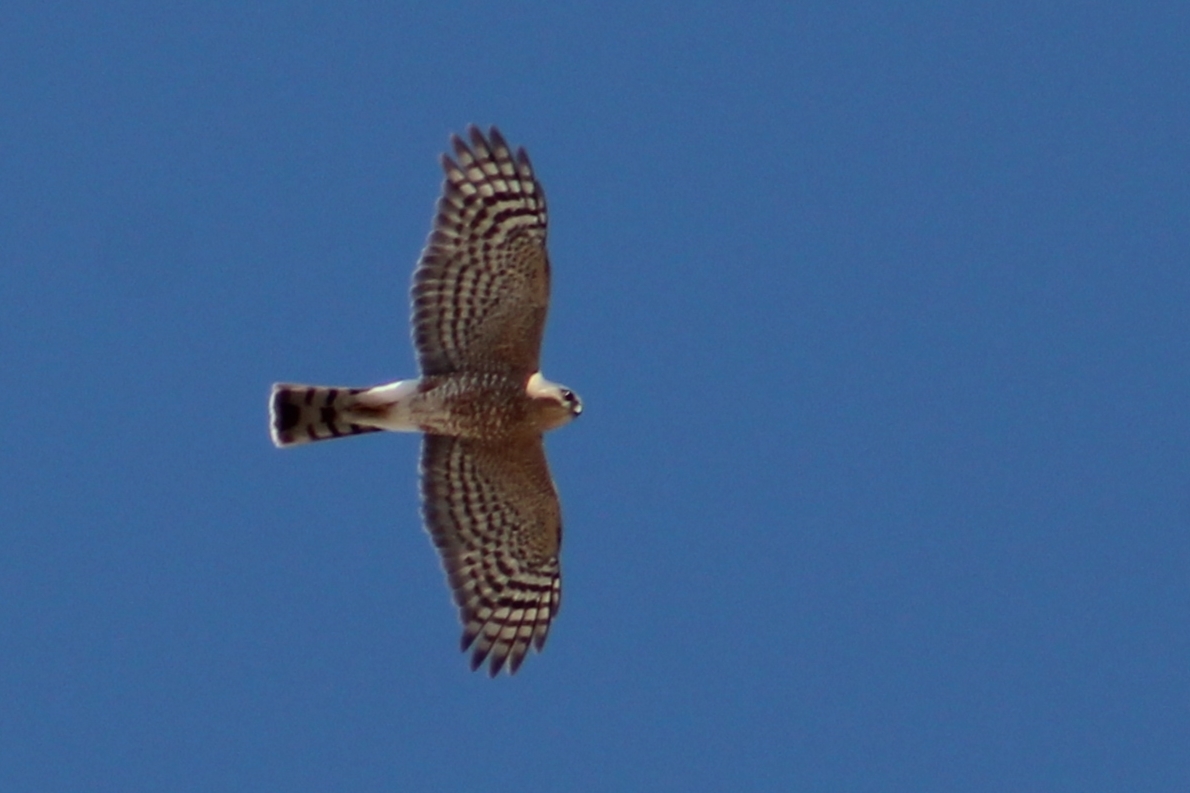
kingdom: Animalia
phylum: Chordata
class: Aves
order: Accipitriformes
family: Accipitridae
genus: Accipiter
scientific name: Accipiter striatus
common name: Sharp-shinned hawk
